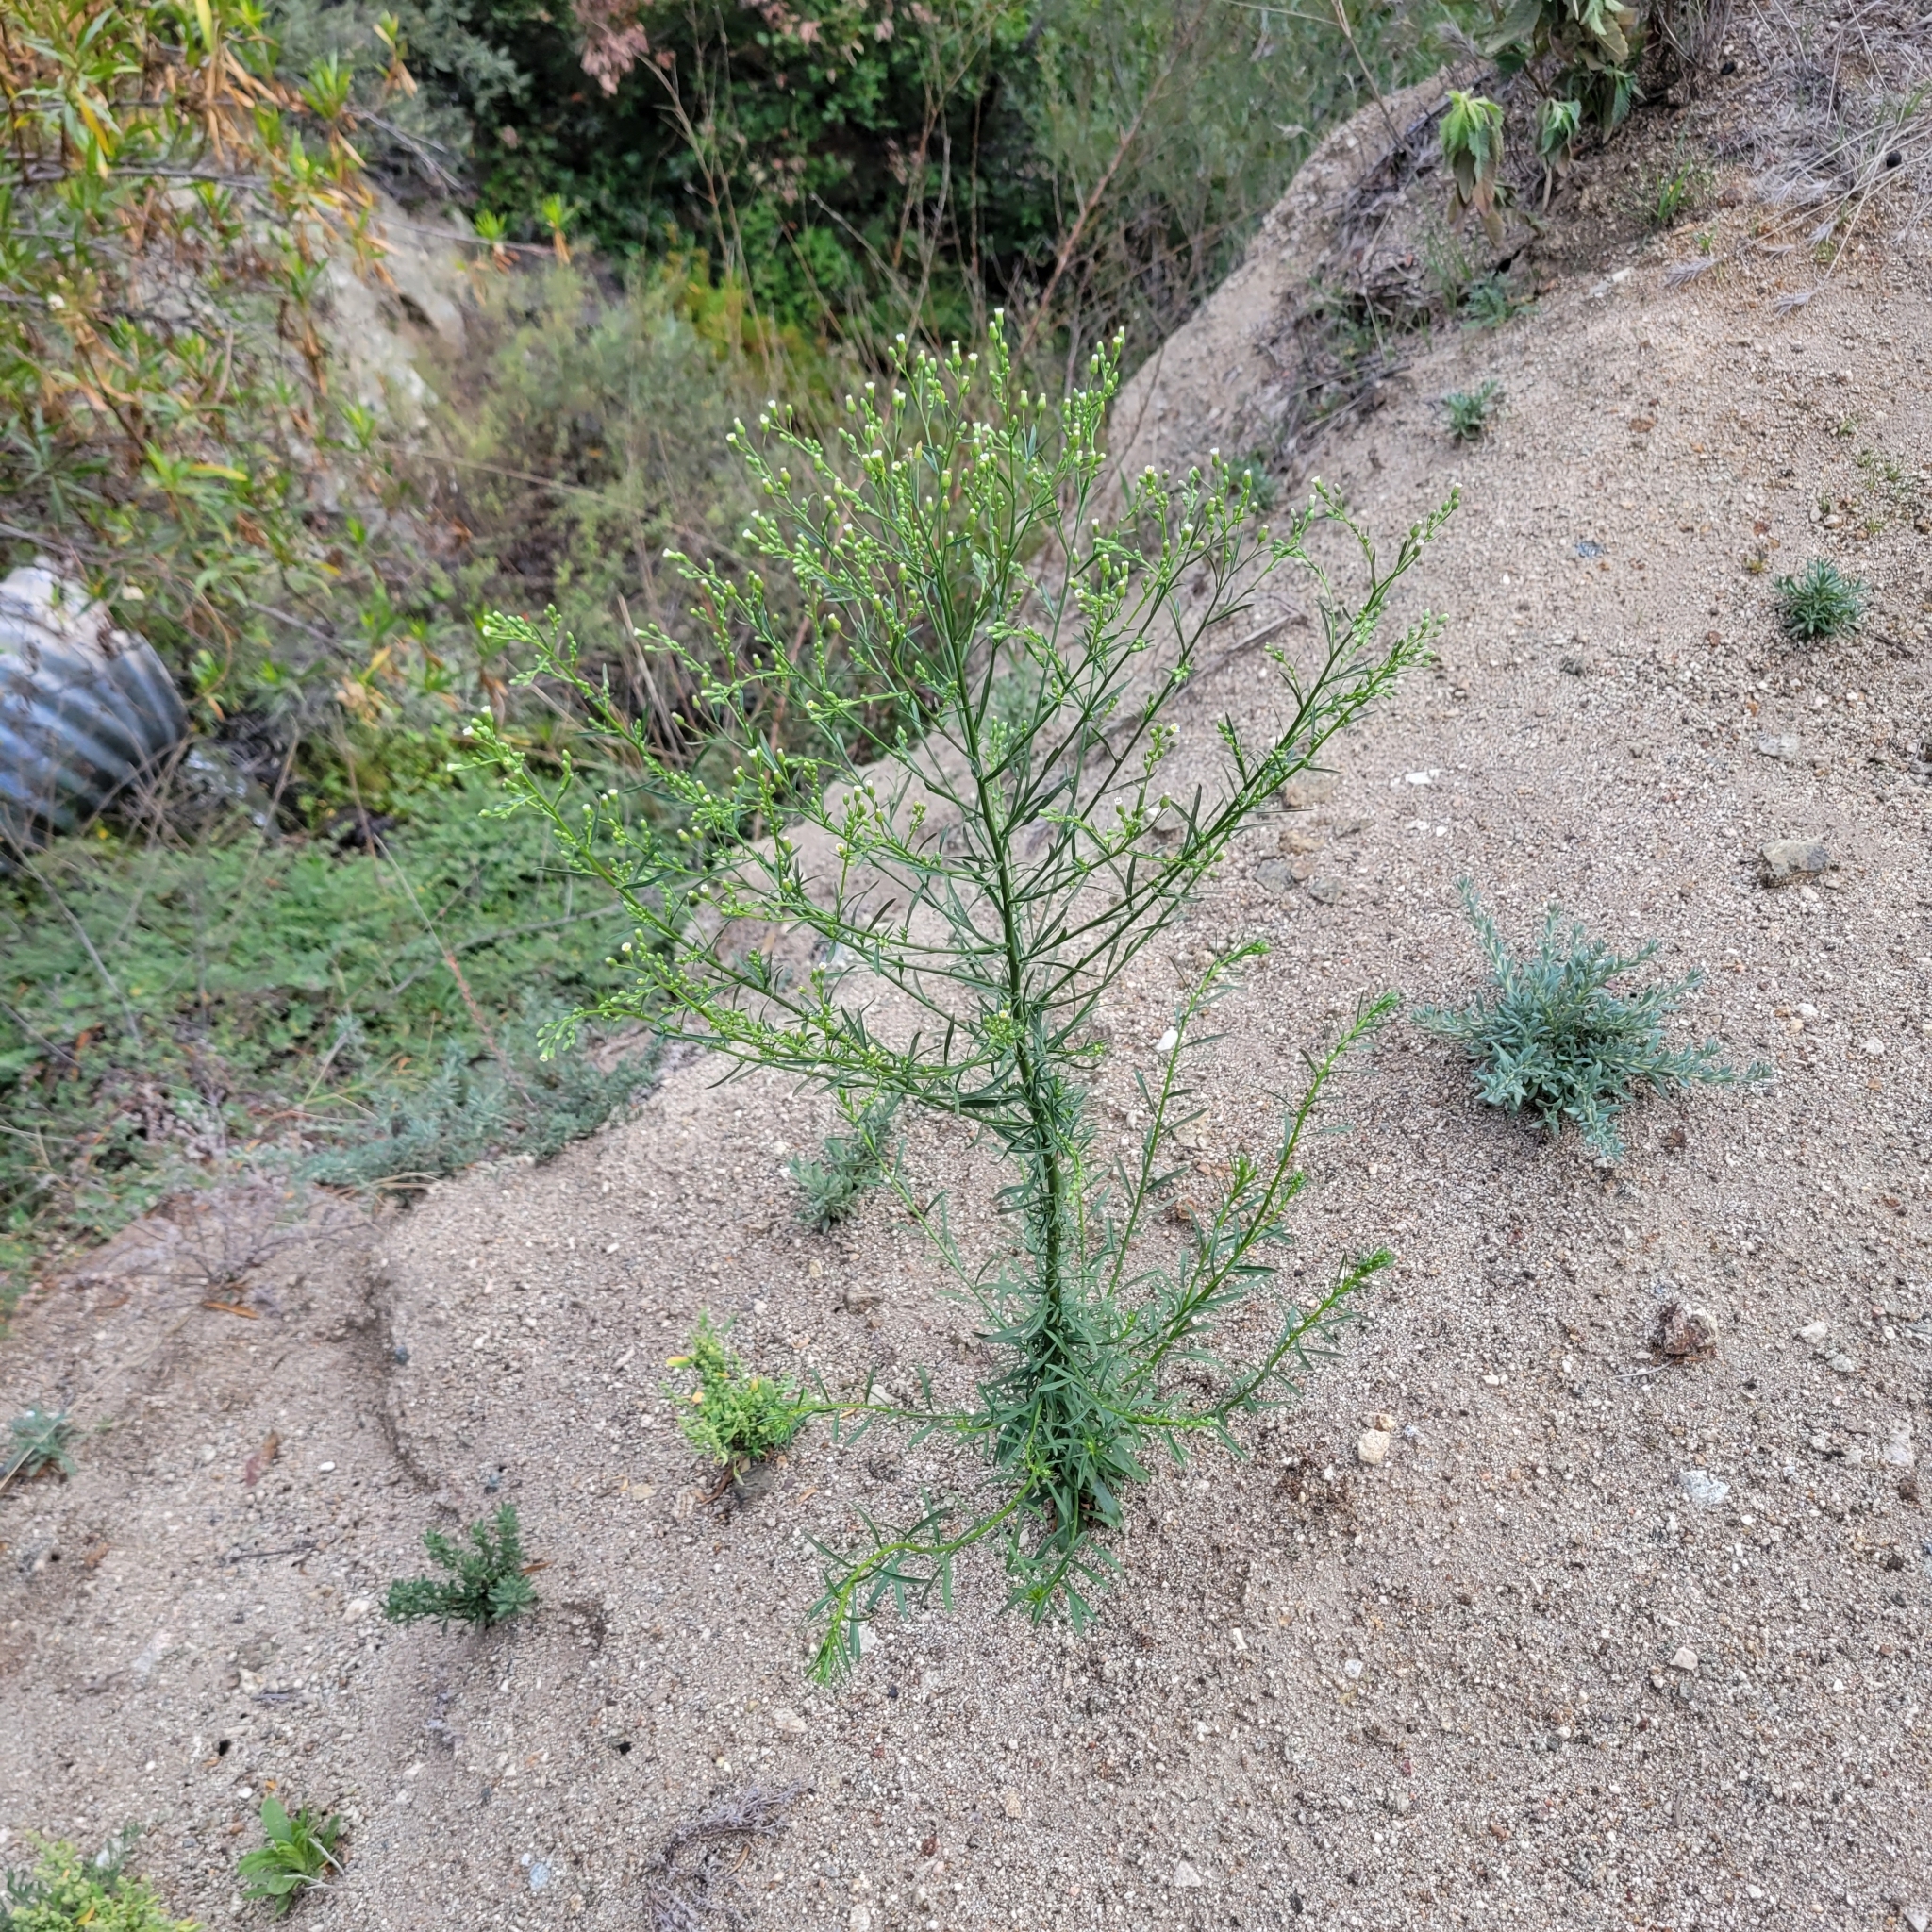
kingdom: Plantae
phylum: Tracheophyta
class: Magnoliopsida
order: Asterales
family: Asteraceae
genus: Erigeron
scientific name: Erigeron canadensis
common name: Canadian fleabane
